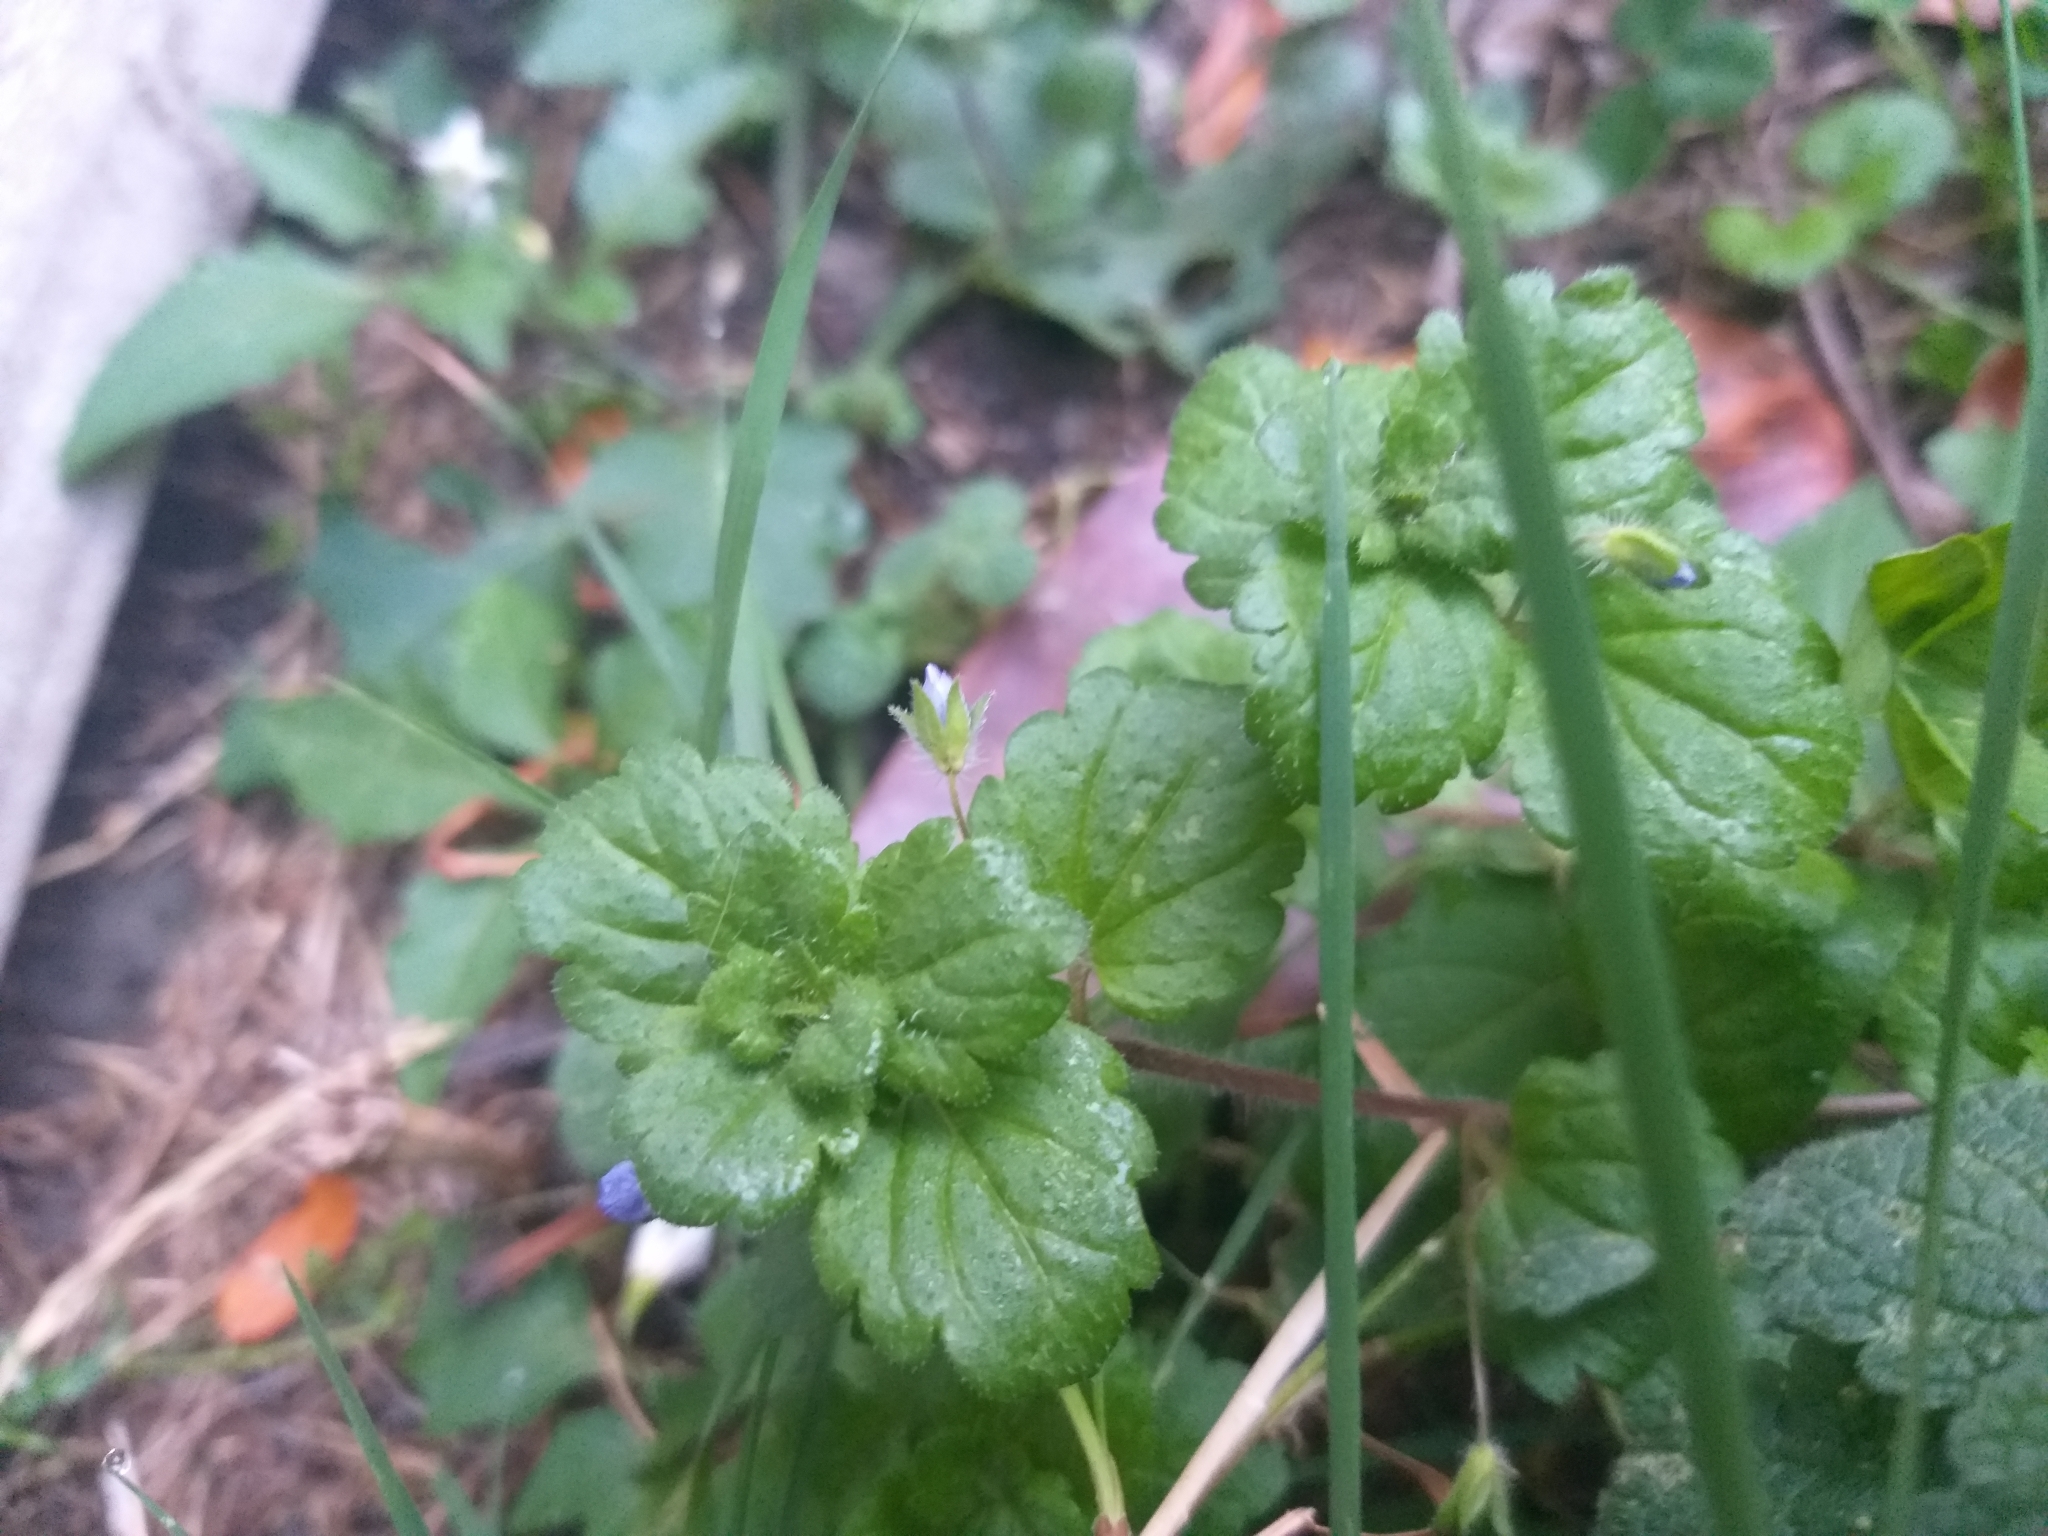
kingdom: Plantae
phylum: Tracheophyta
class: Magnoliopsida
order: Lamiales
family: Plantaginaceae
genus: Veronica
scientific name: Veronica persica
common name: Common field-speedwell
